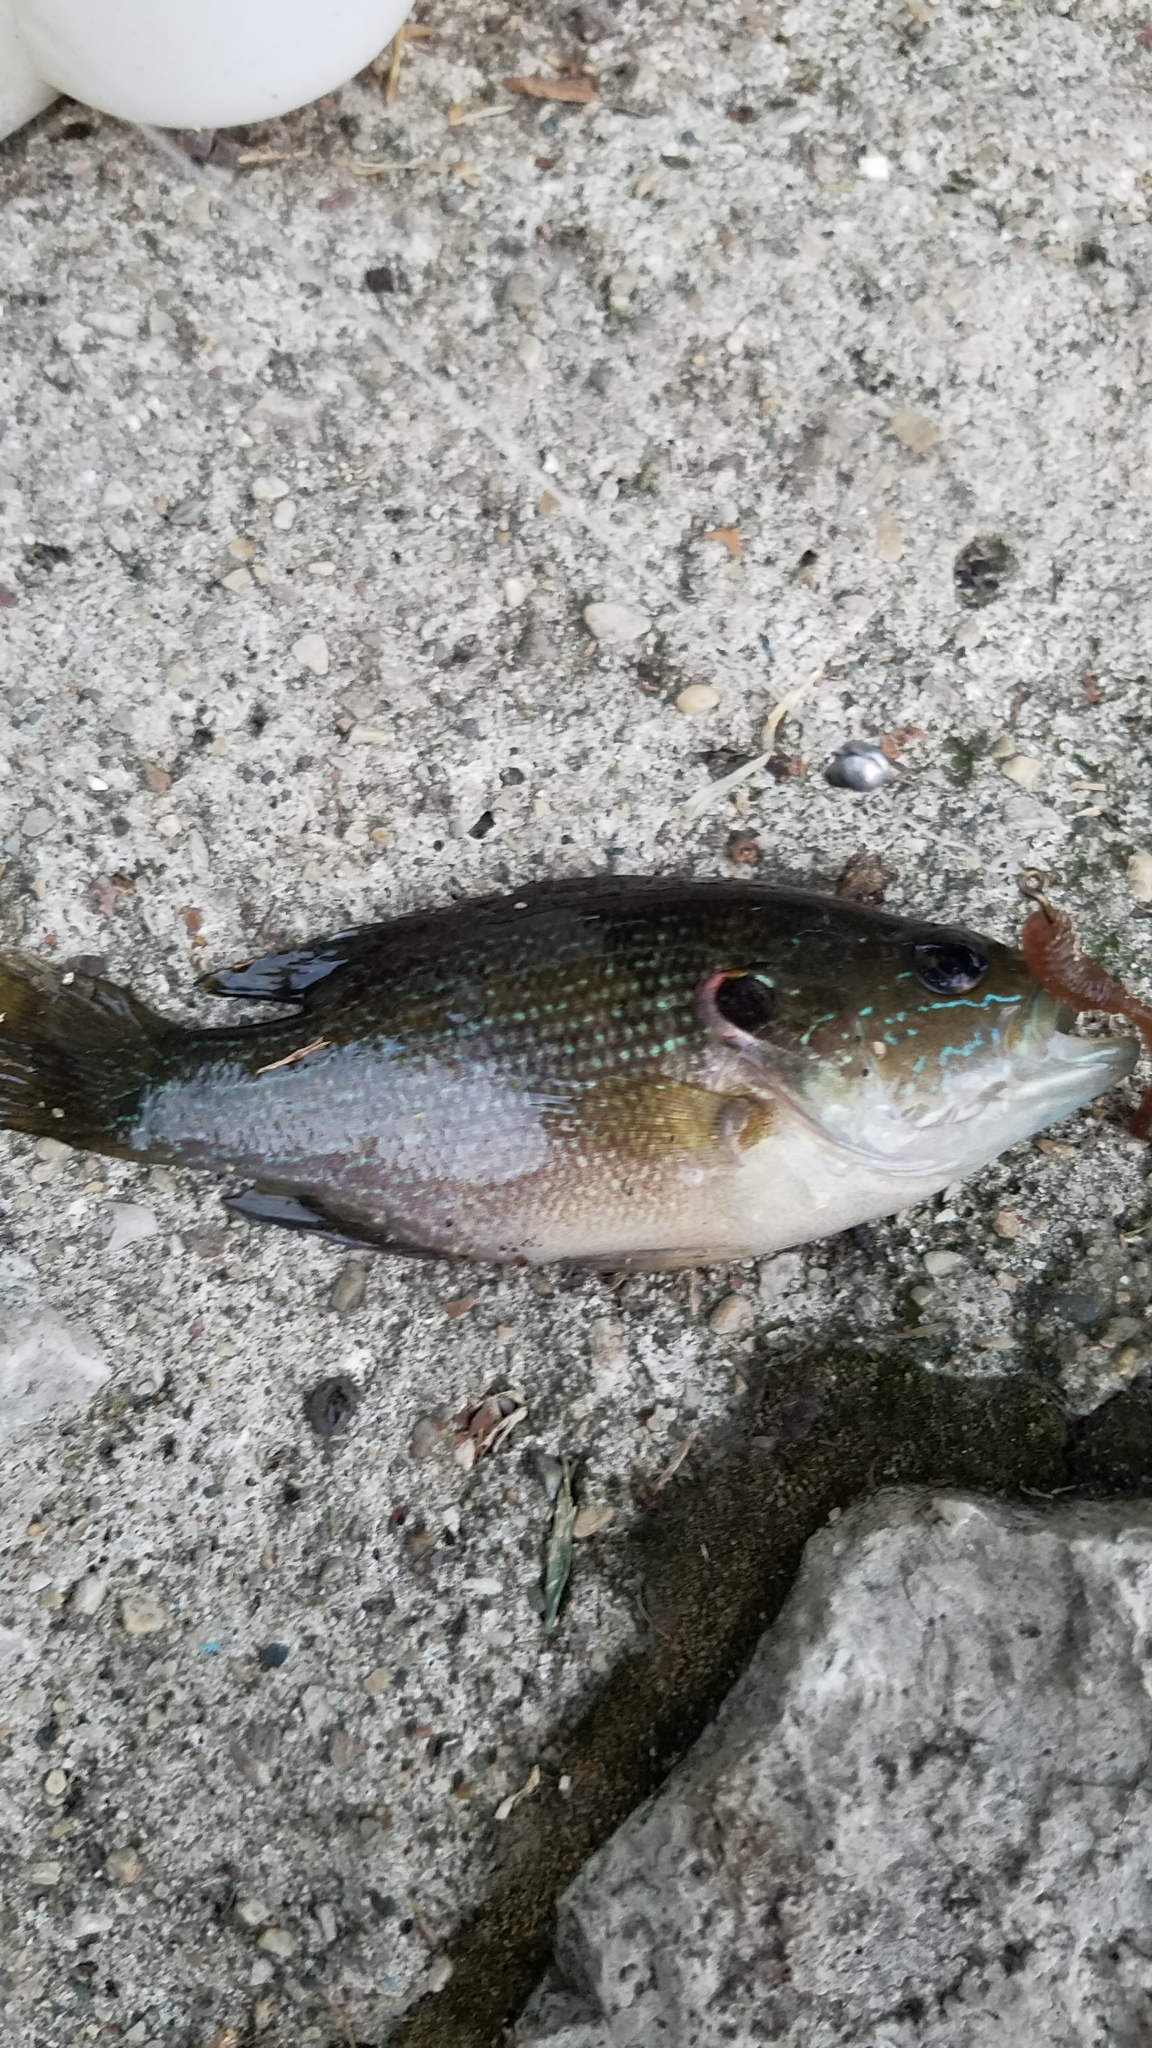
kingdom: Animalia
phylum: Chordata
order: Perciformes
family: Centrarchidae
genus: Lepomis
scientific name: Lepomis cyanellus
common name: Green sunfish
